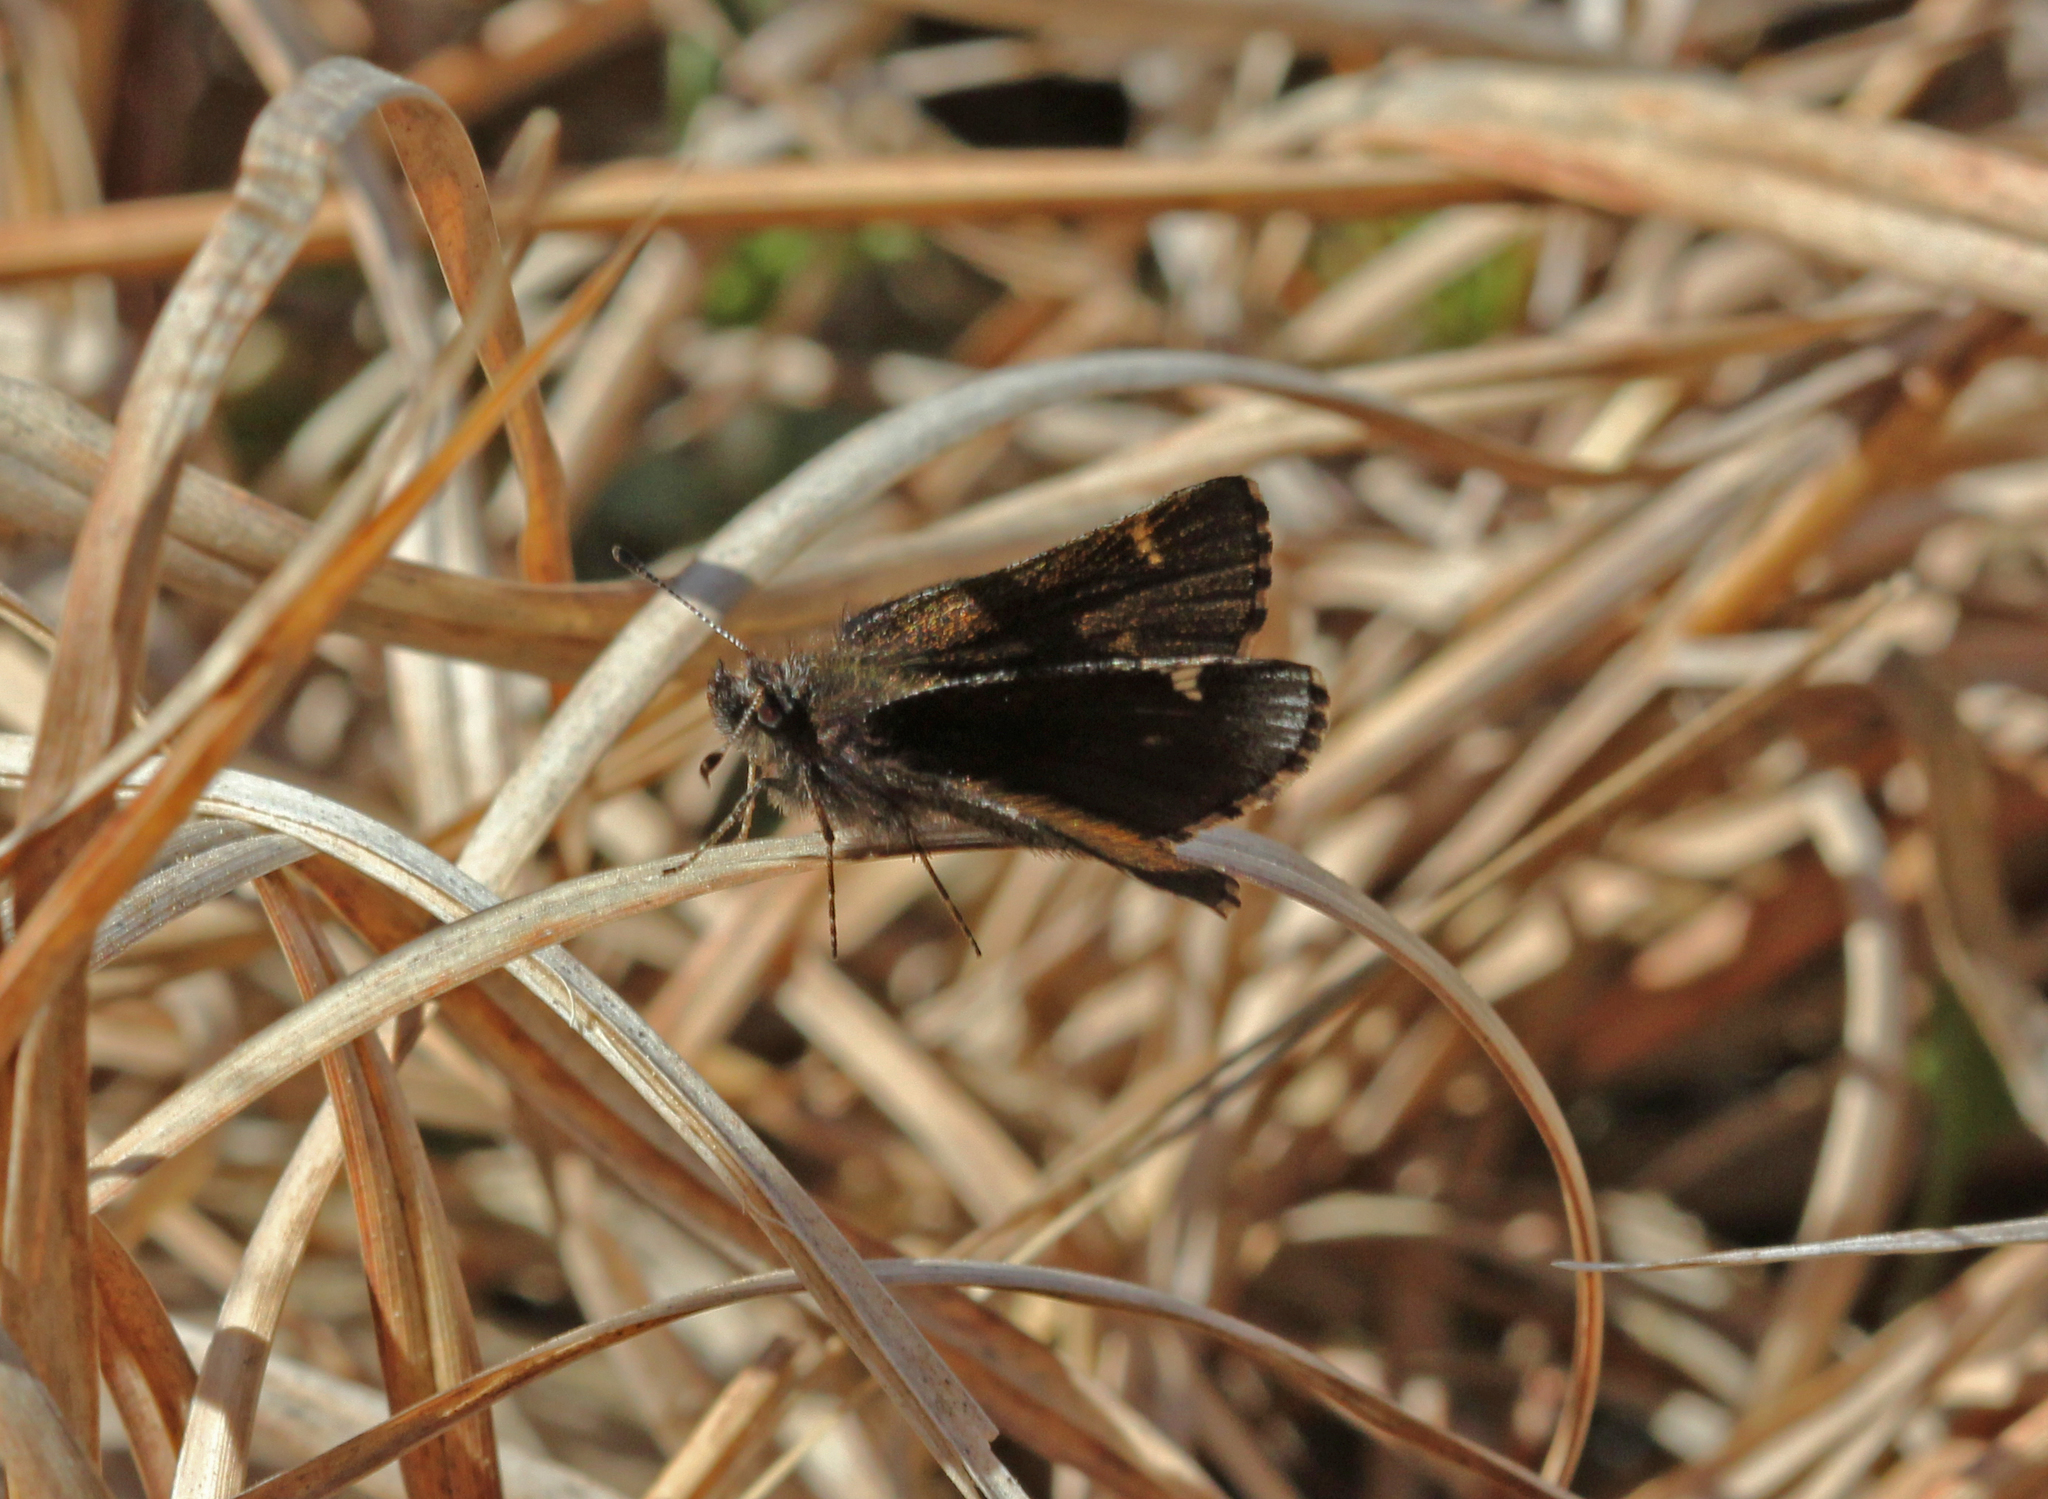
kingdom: Animalia
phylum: Arthropoda
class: Insecta
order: Lepidoptera
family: Hesperiidae
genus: Mastor
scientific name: Mastor vialis
